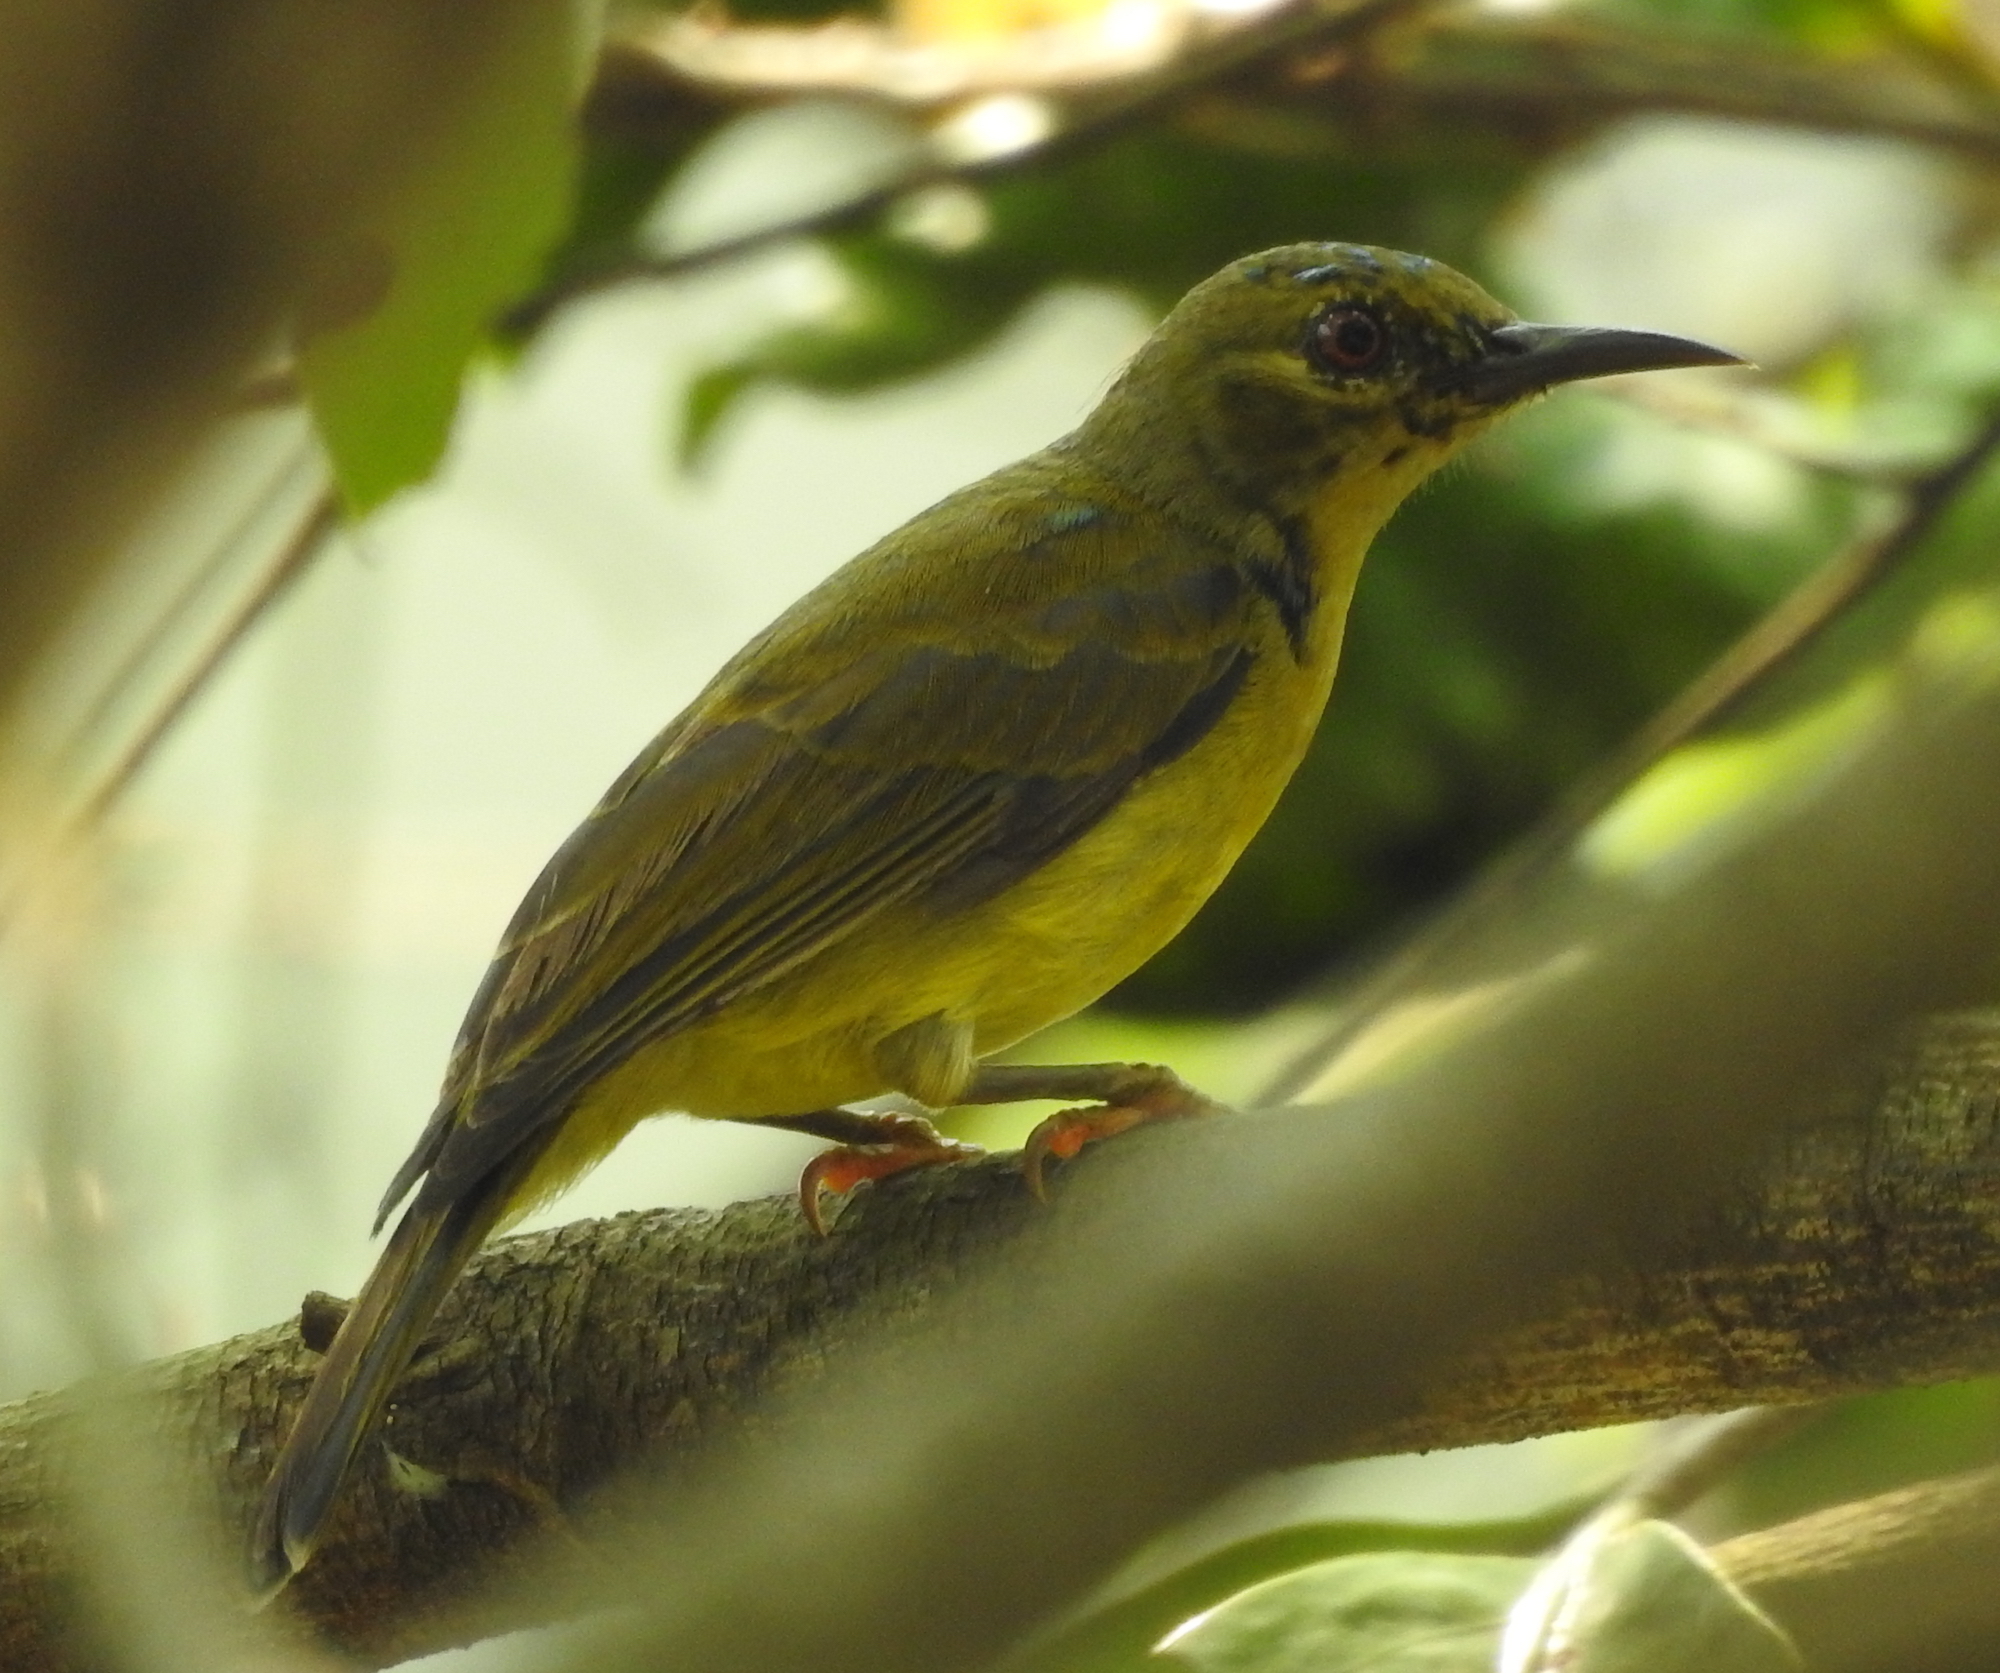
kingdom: Animalia
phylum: Chordata
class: Aves
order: Passeriformes
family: Nectariniidae
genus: Anthreptes
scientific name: Anthreptes malacensis
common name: Brown-throated sunbird
